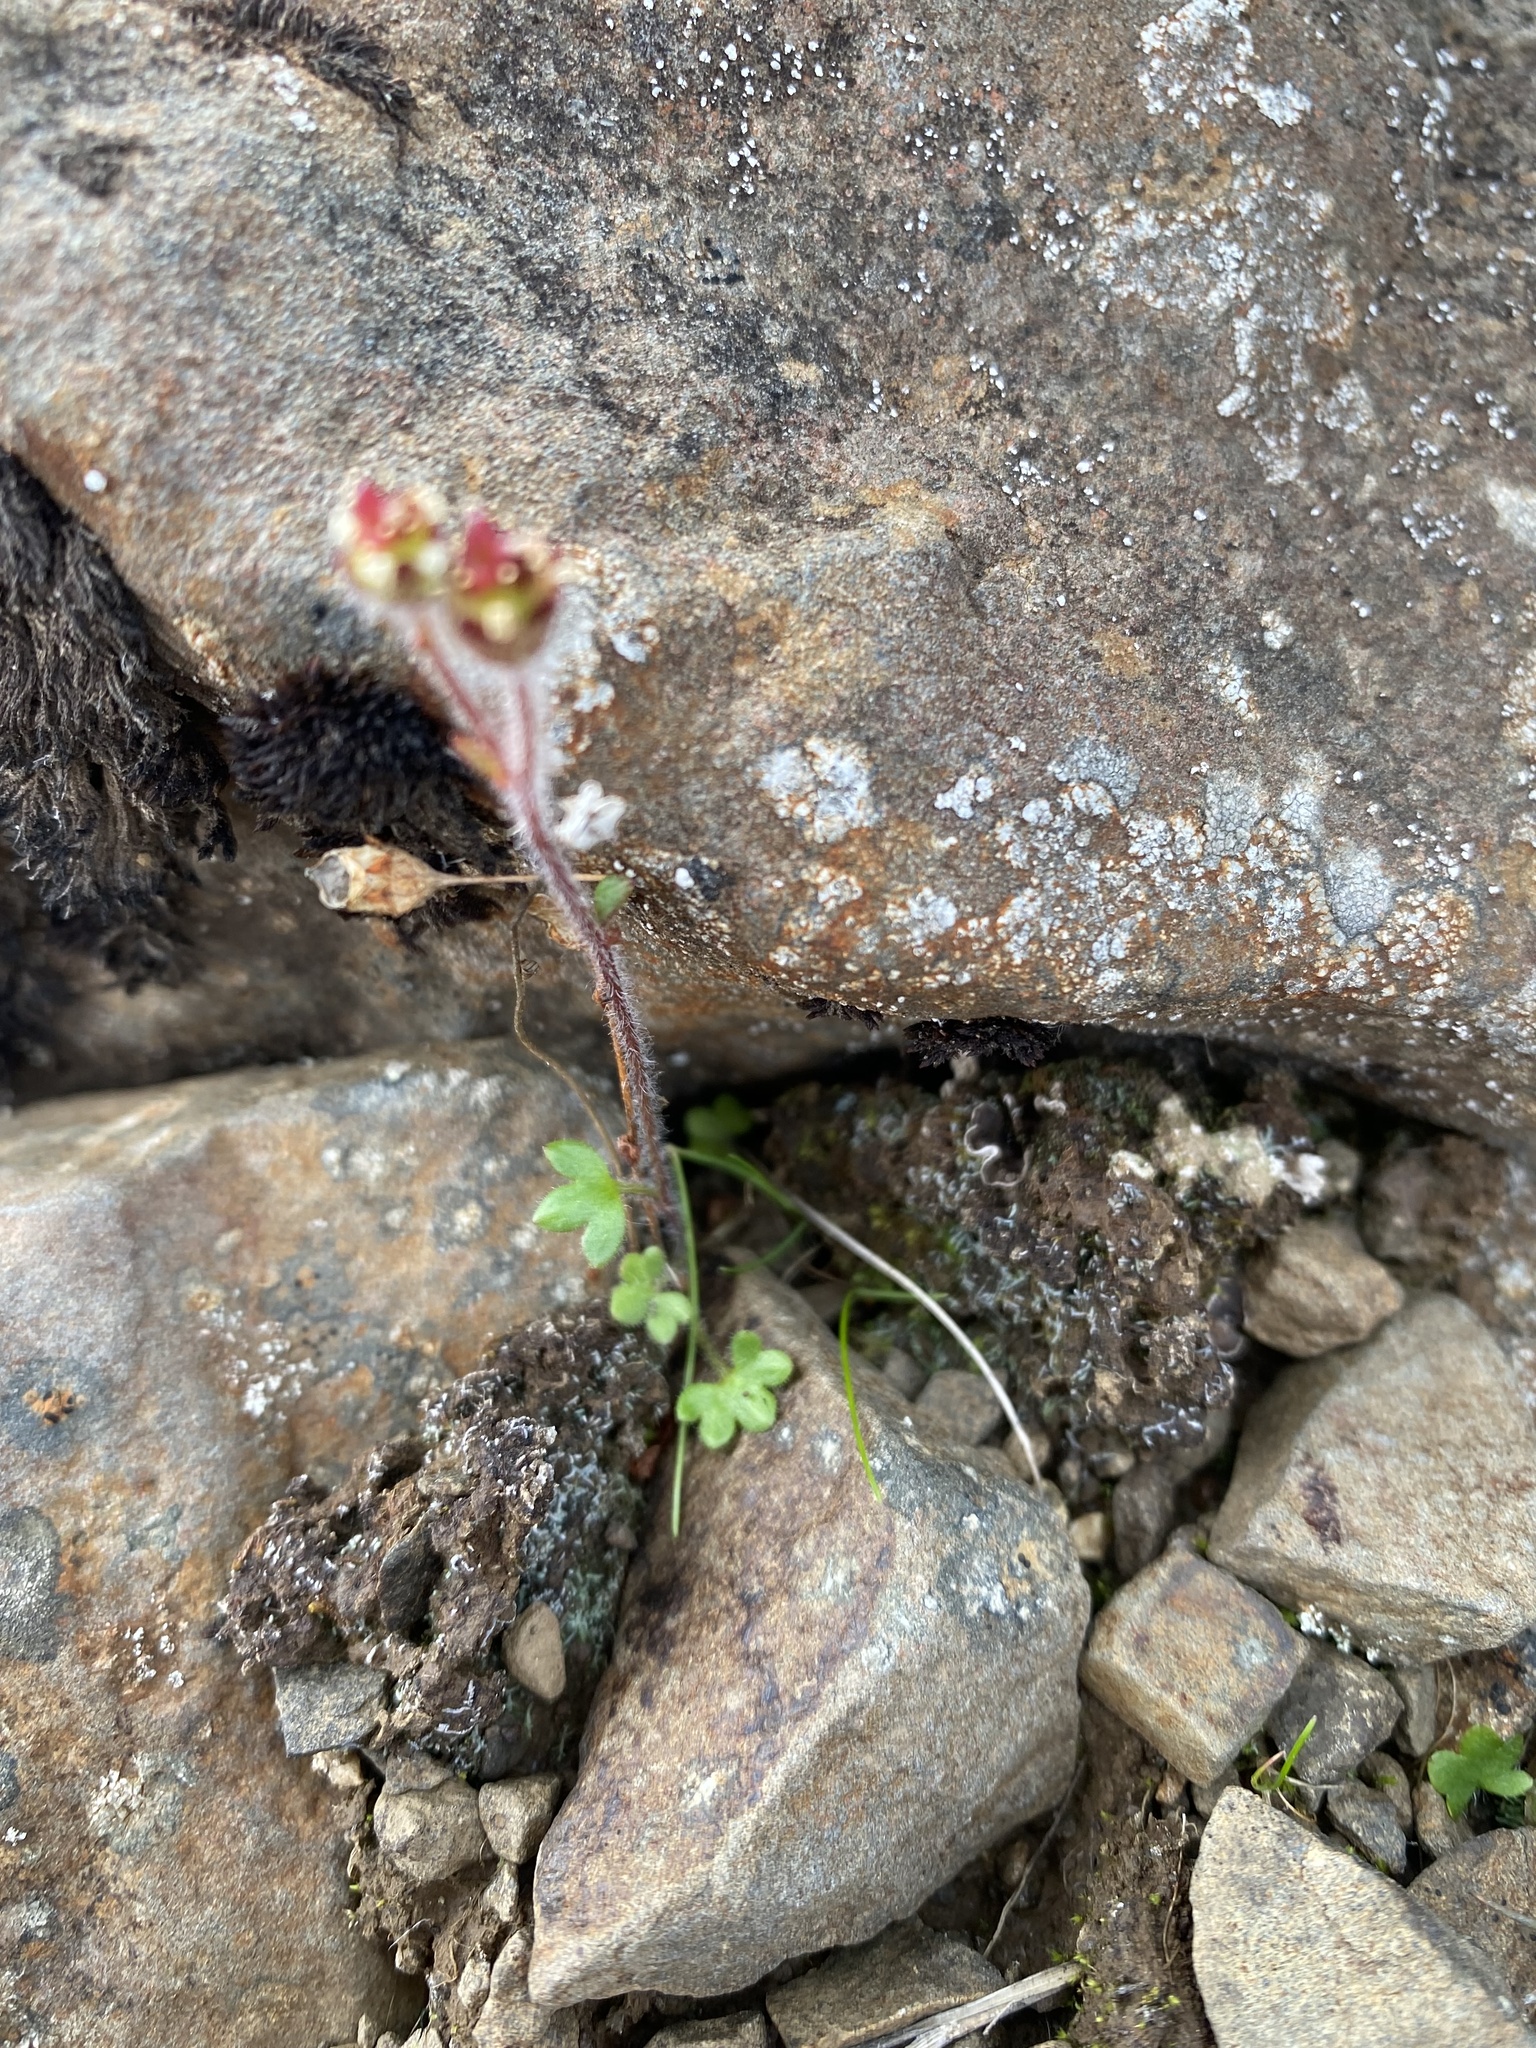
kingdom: Plantae
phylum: Tracheophyta
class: Magnoliopsida
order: Saxifragales
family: Saxifragaceae
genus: Saxifraga
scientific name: Saxifraga hyperborea
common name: Arctic saxifrage
